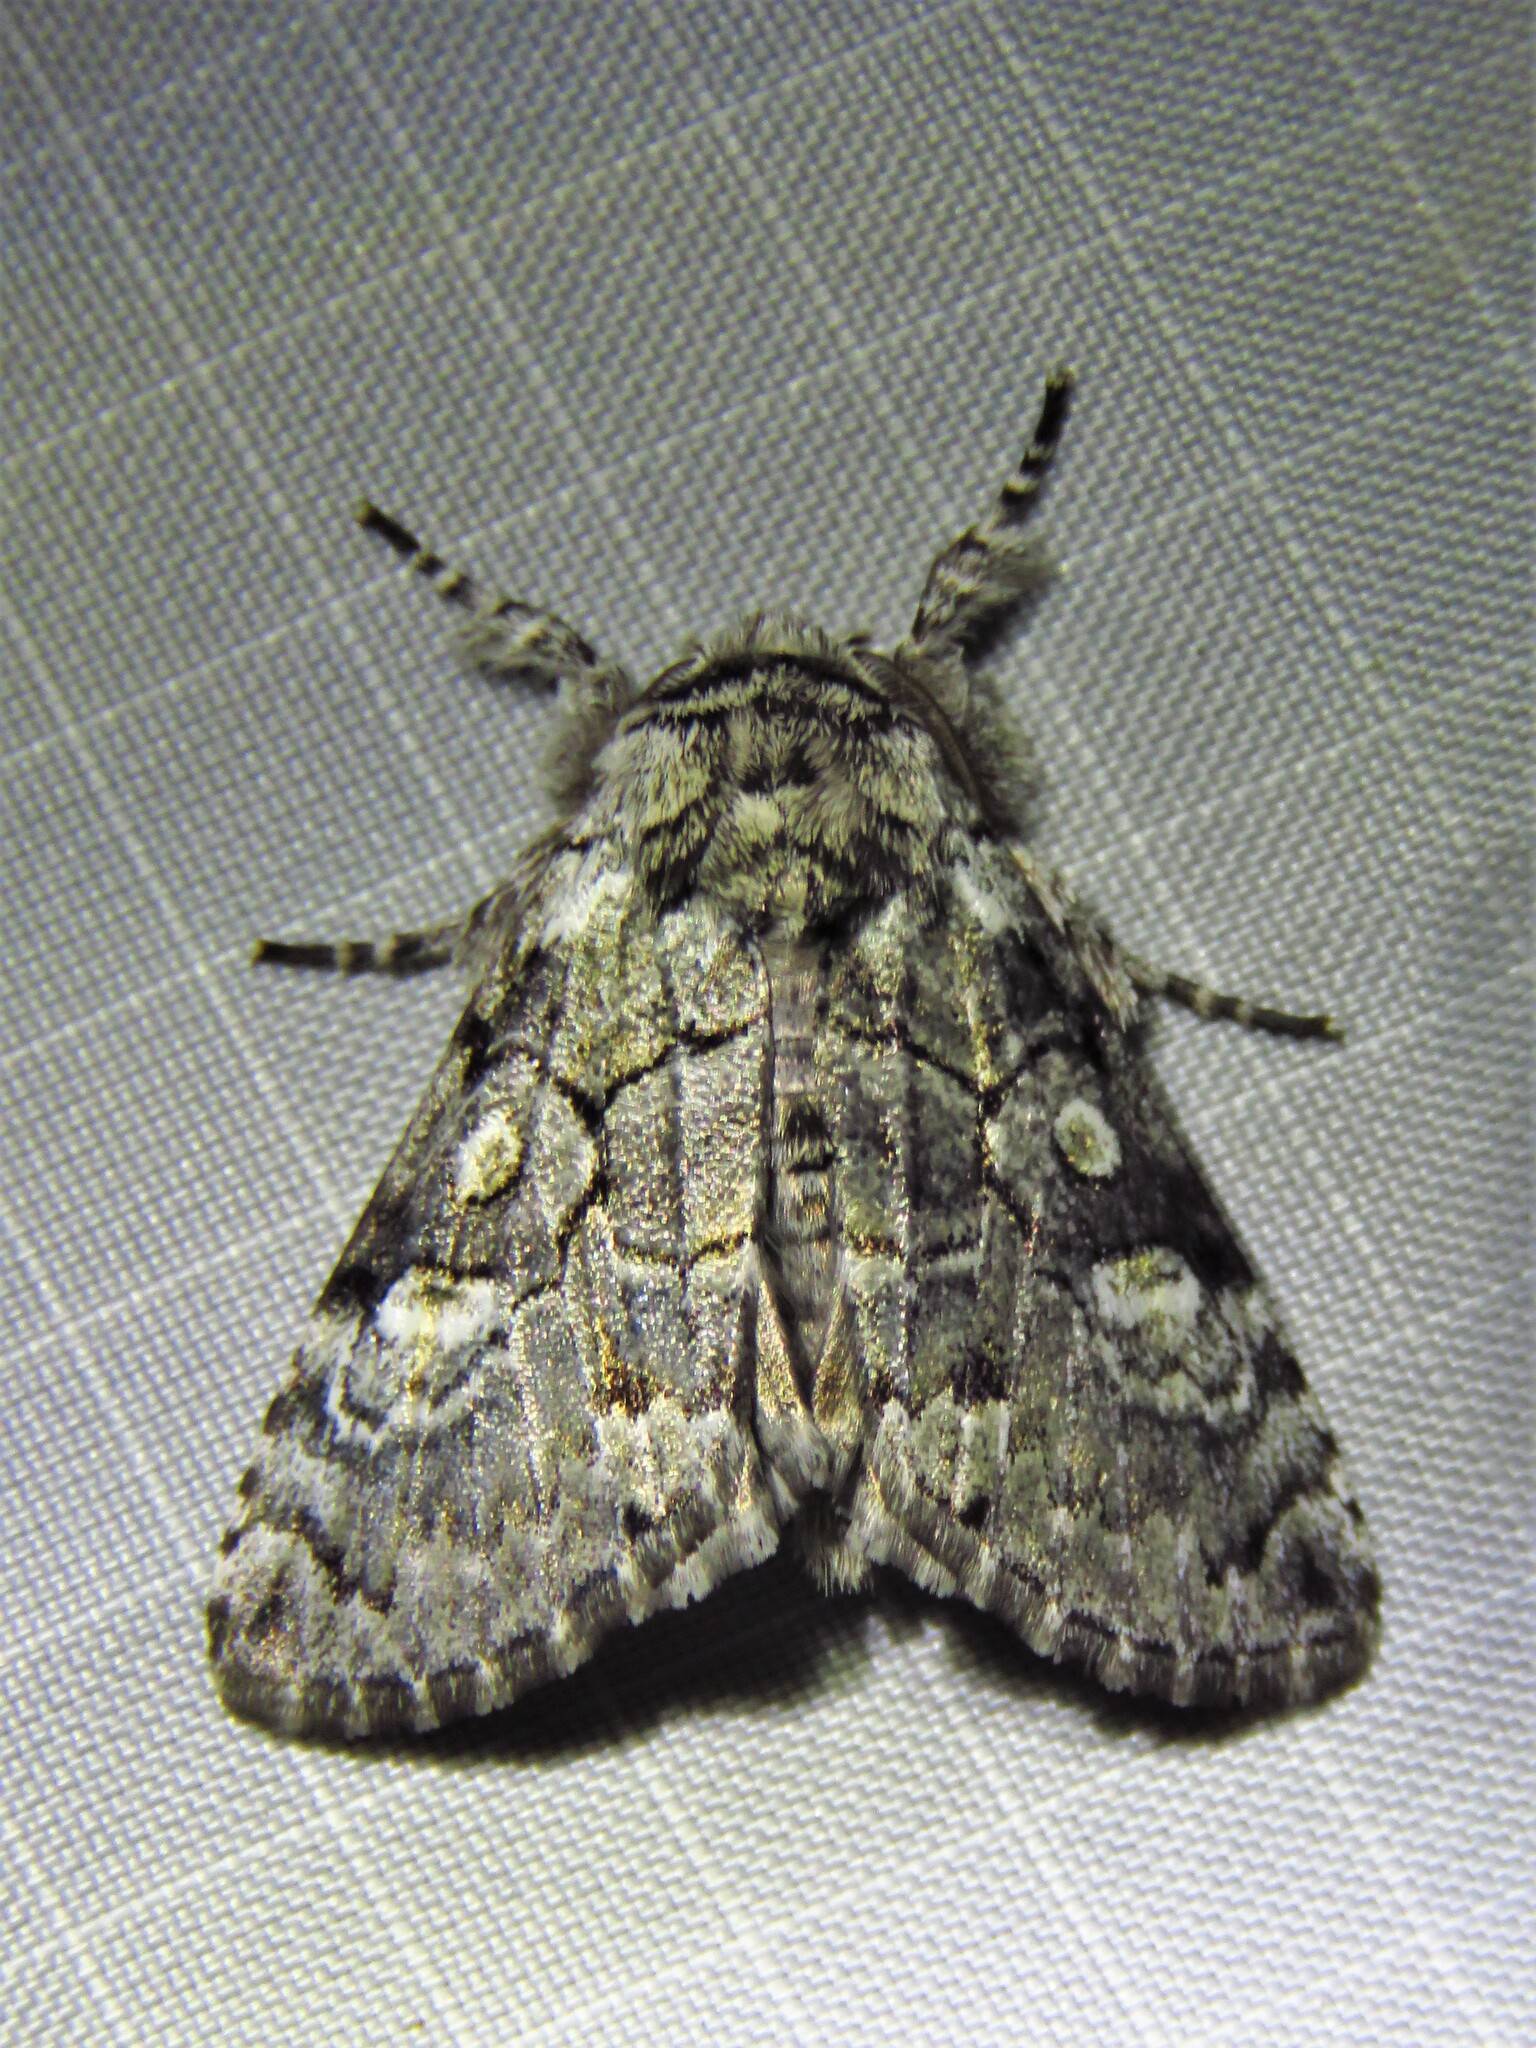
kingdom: Animalia
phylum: Arthropoda
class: Insecta
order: Lepidoptera
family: Noctuidae
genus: Charadra
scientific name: Charadra deridens
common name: Marbled tuffet
